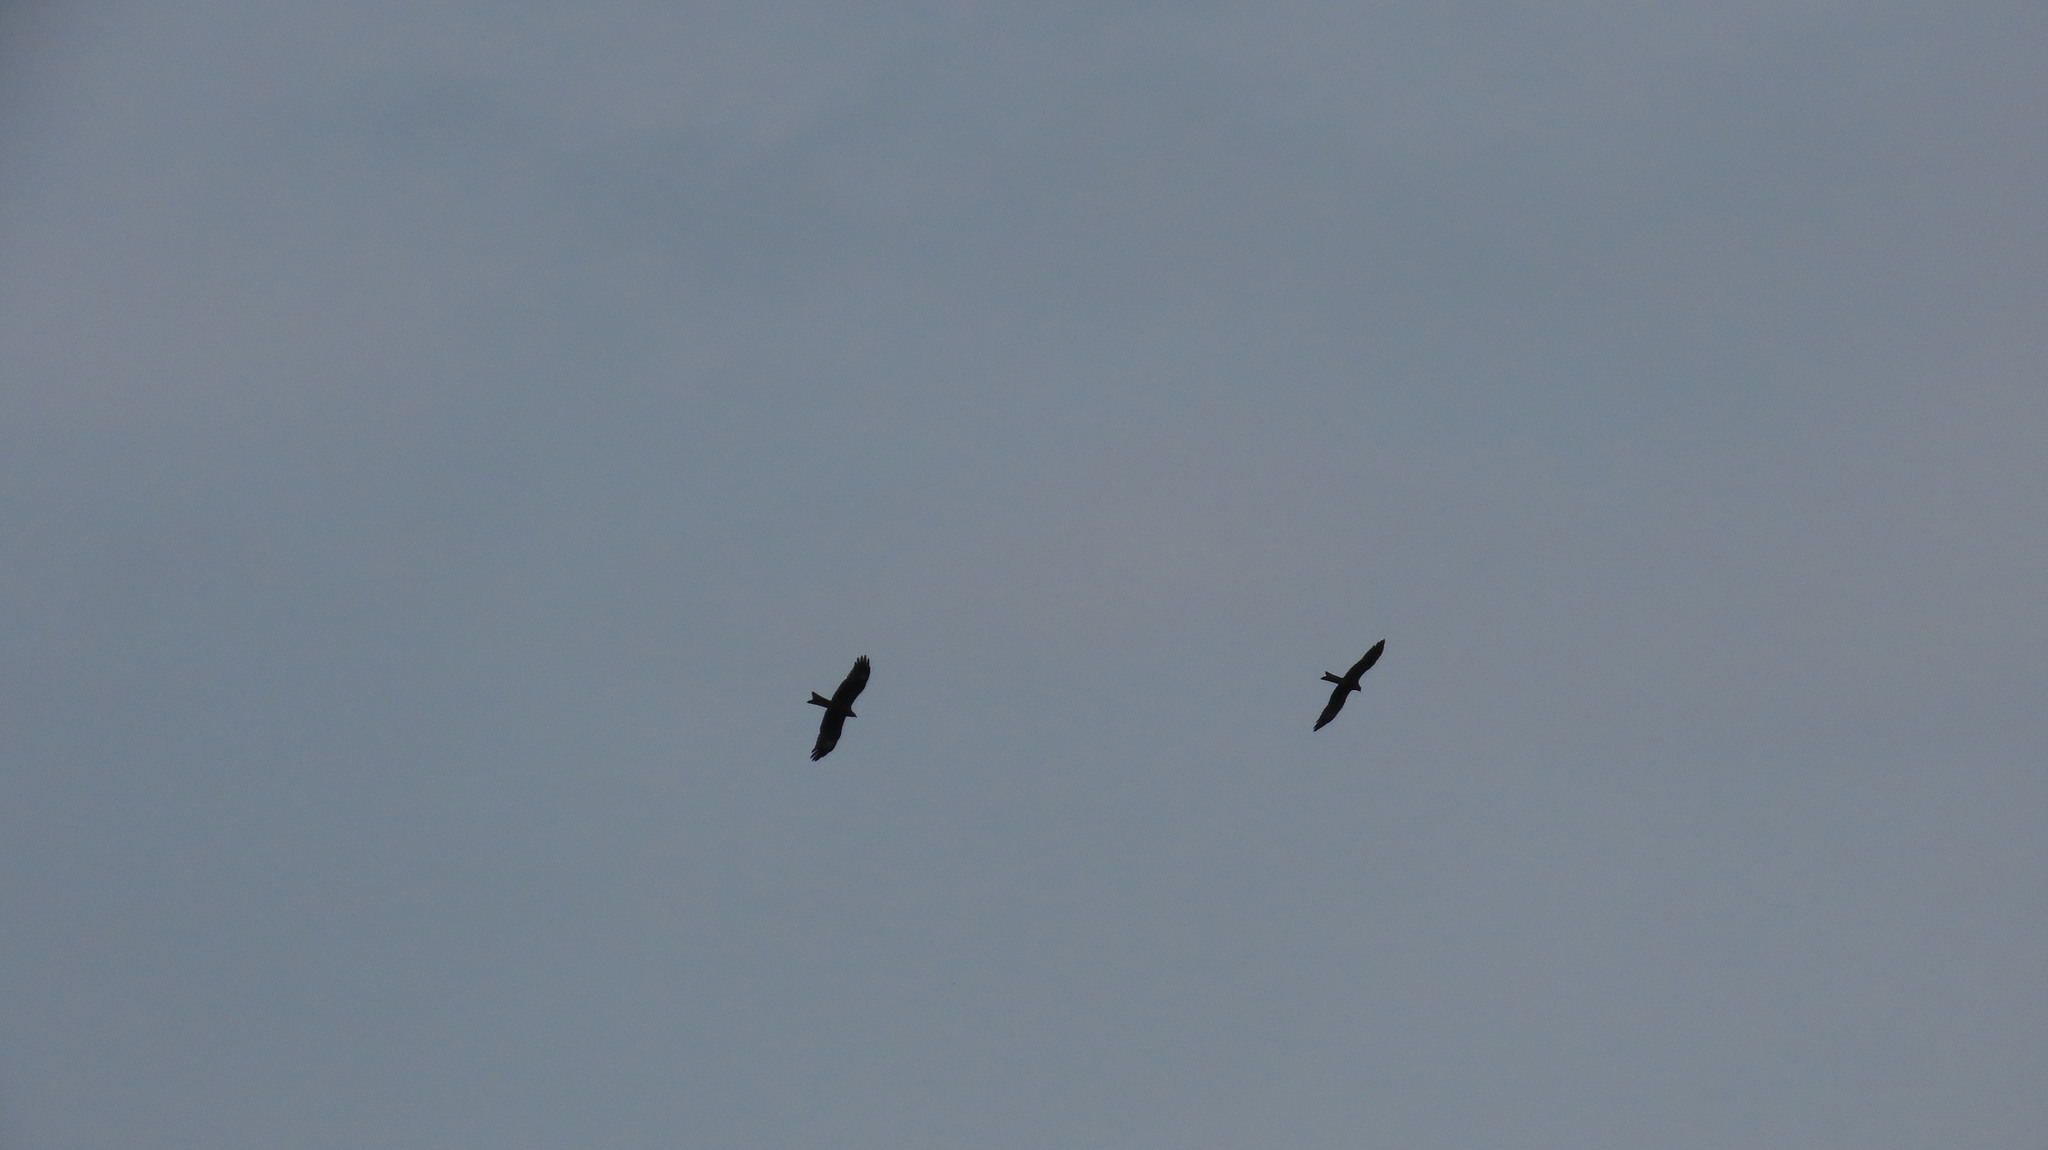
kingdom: Animalia
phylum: Chordata
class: Aves
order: Accipitriformes
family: Accipitridae
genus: Milvus
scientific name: Milvus migrans
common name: Black kite
